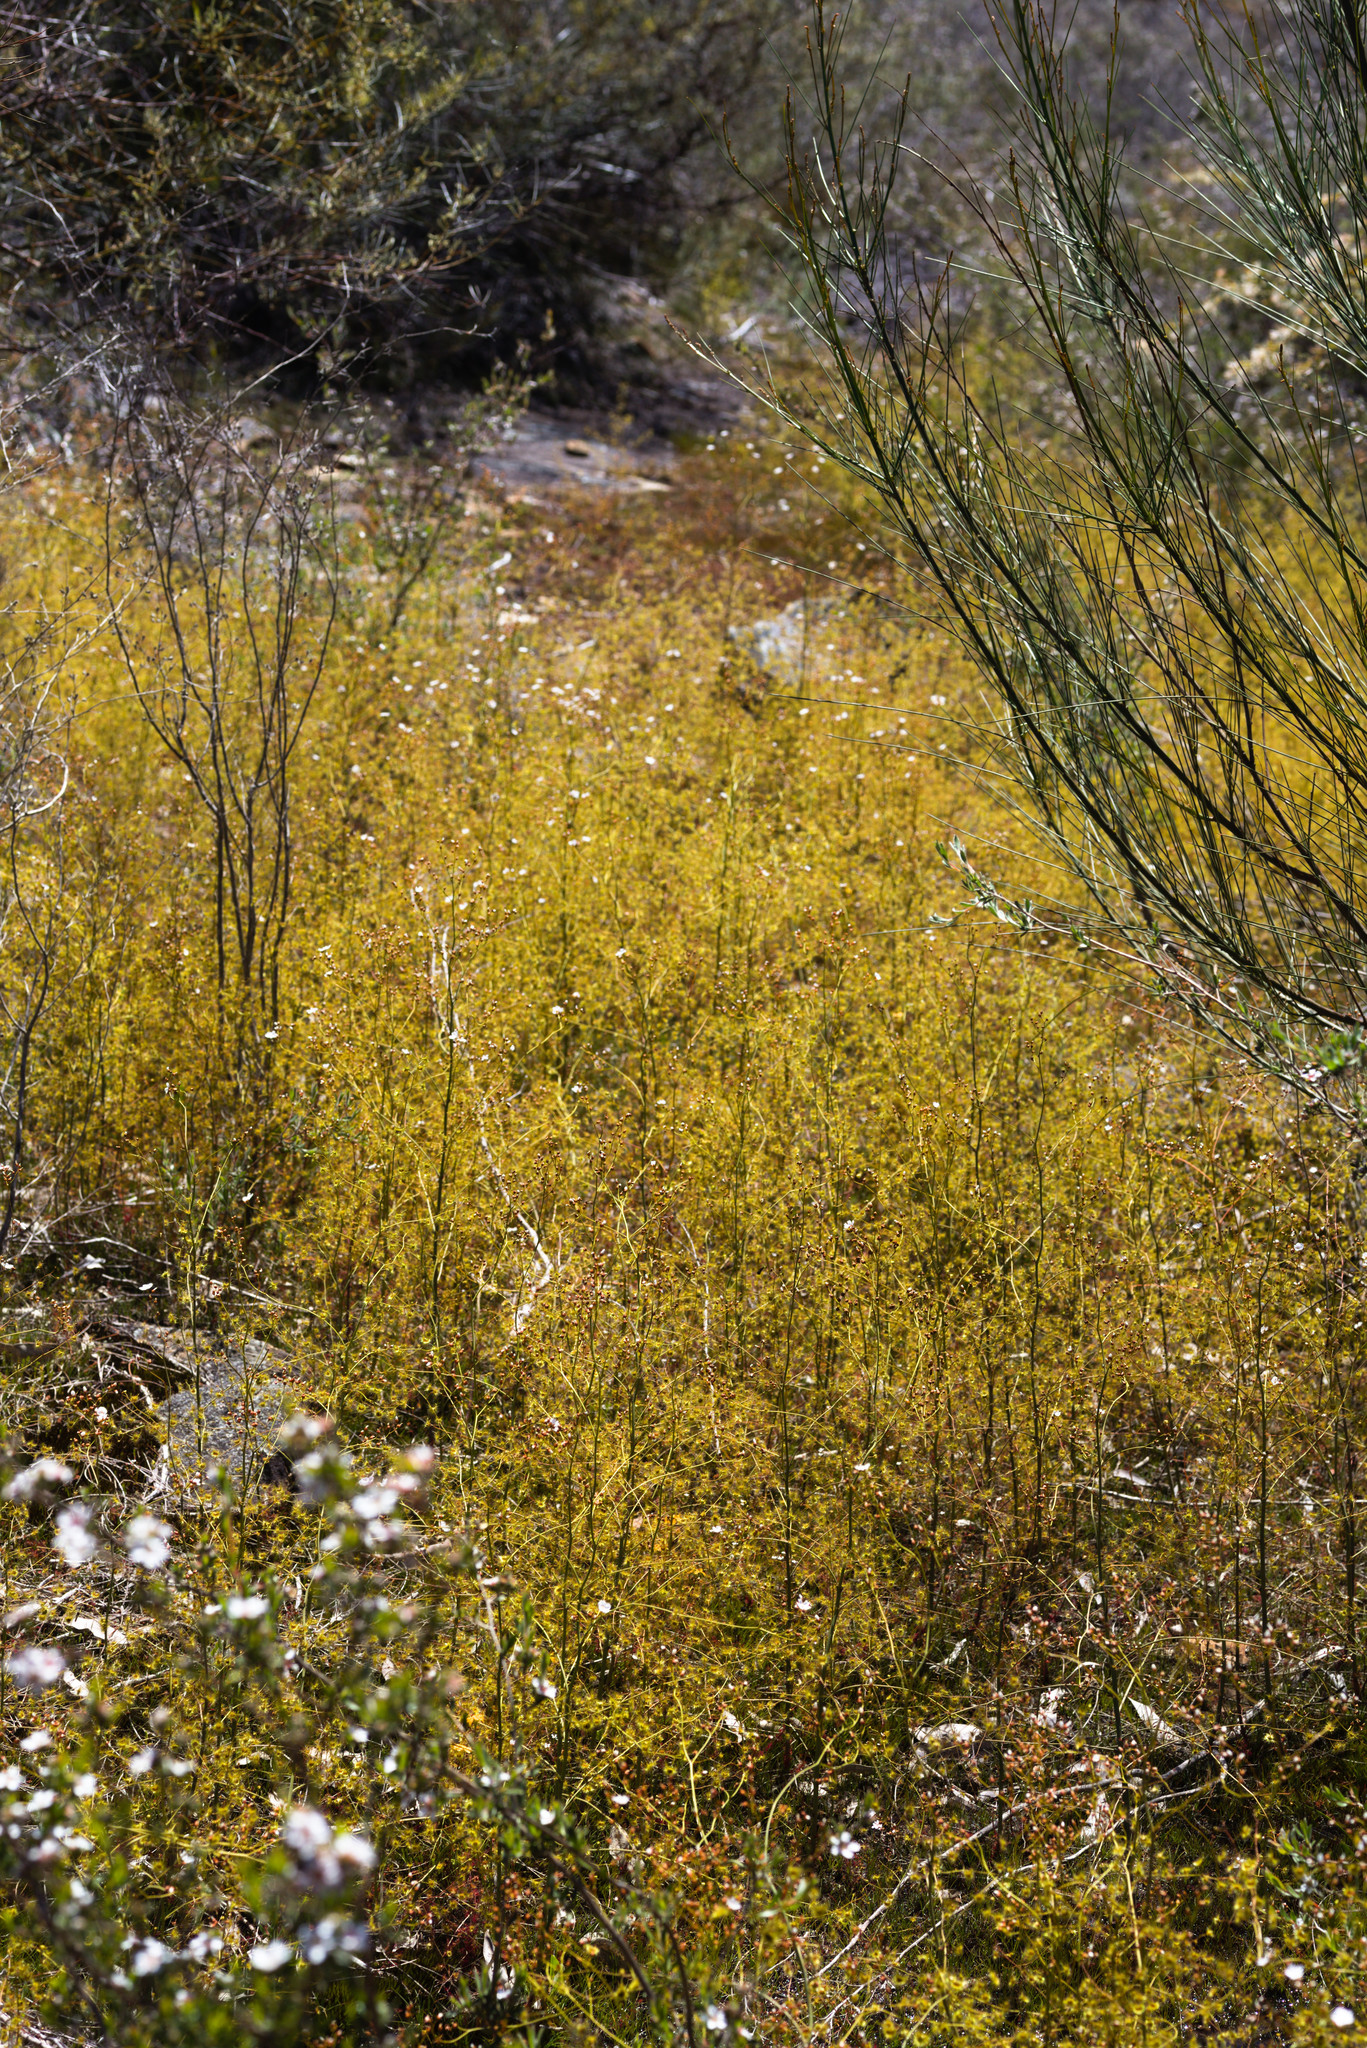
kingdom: Plantae
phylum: Tracheophyta
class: Magnoliopsida
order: Caryophyllales
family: Droseraceae
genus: Drosera
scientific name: Drosera gigantea
